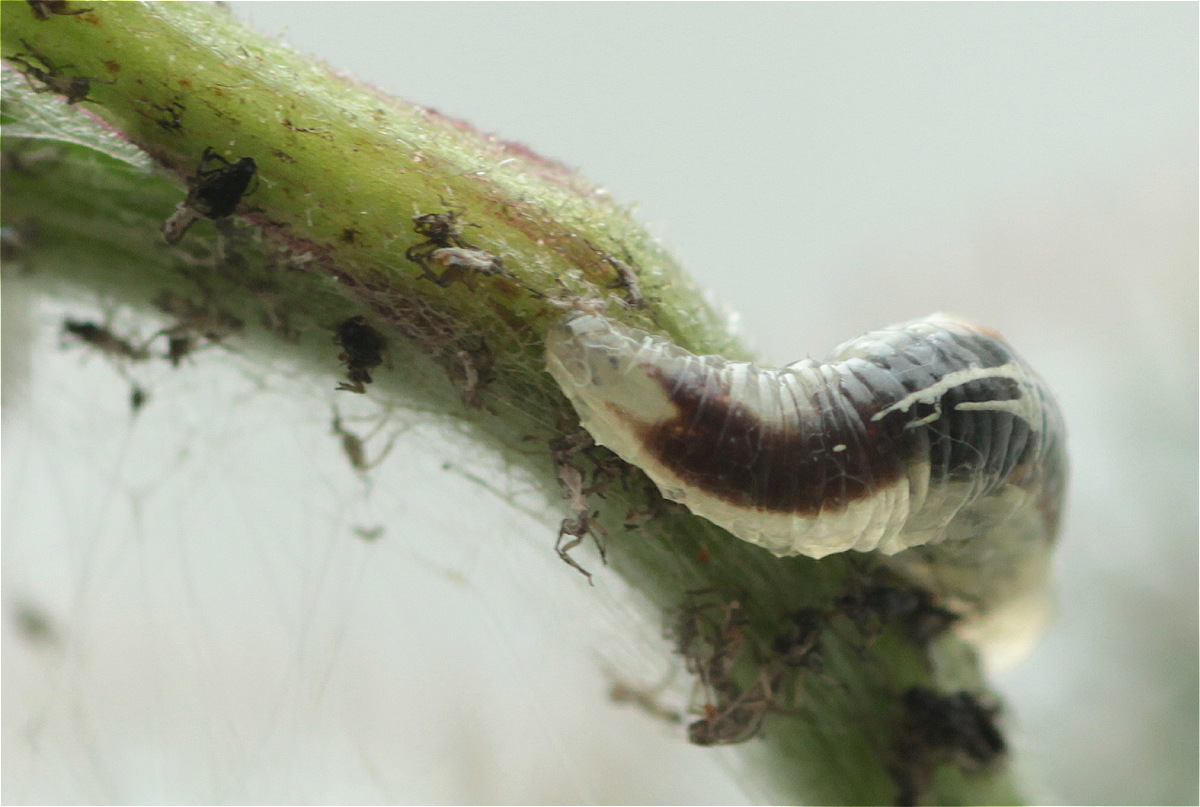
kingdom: Animalia
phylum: Arthropoda
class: Insecta
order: Diptera
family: Syrphidae
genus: Episyrphus
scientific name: Episyrphus balteatus
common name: Marmalade hoverfly
